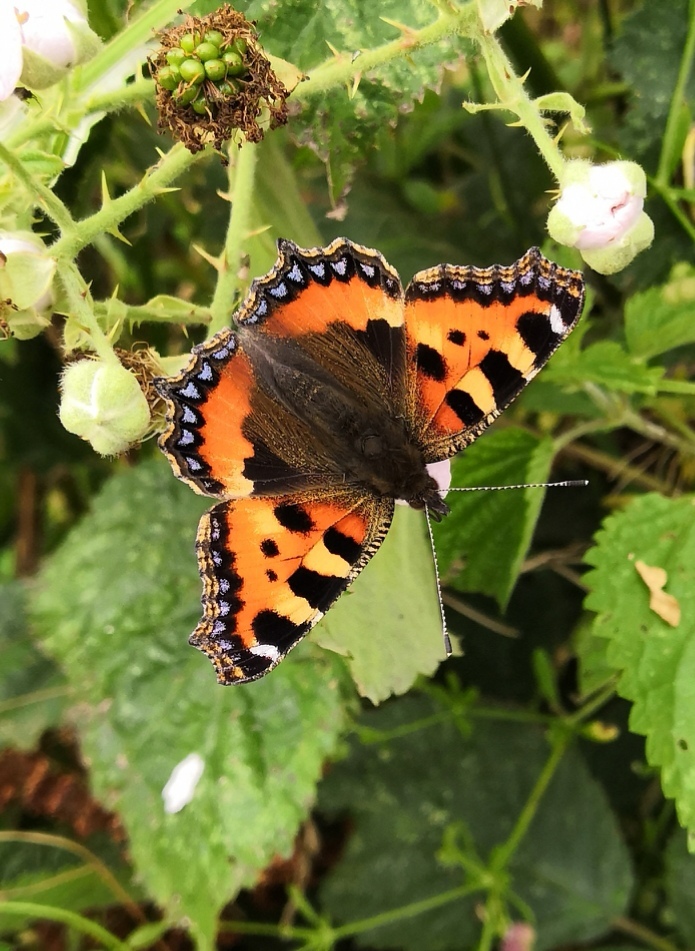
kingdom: Animalia
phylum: Arthropoda
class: Insecta
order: Lepidoptera
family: Nymphalidae
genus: Aglais
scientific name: Aglais urticae
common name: Small tortoiseshell
